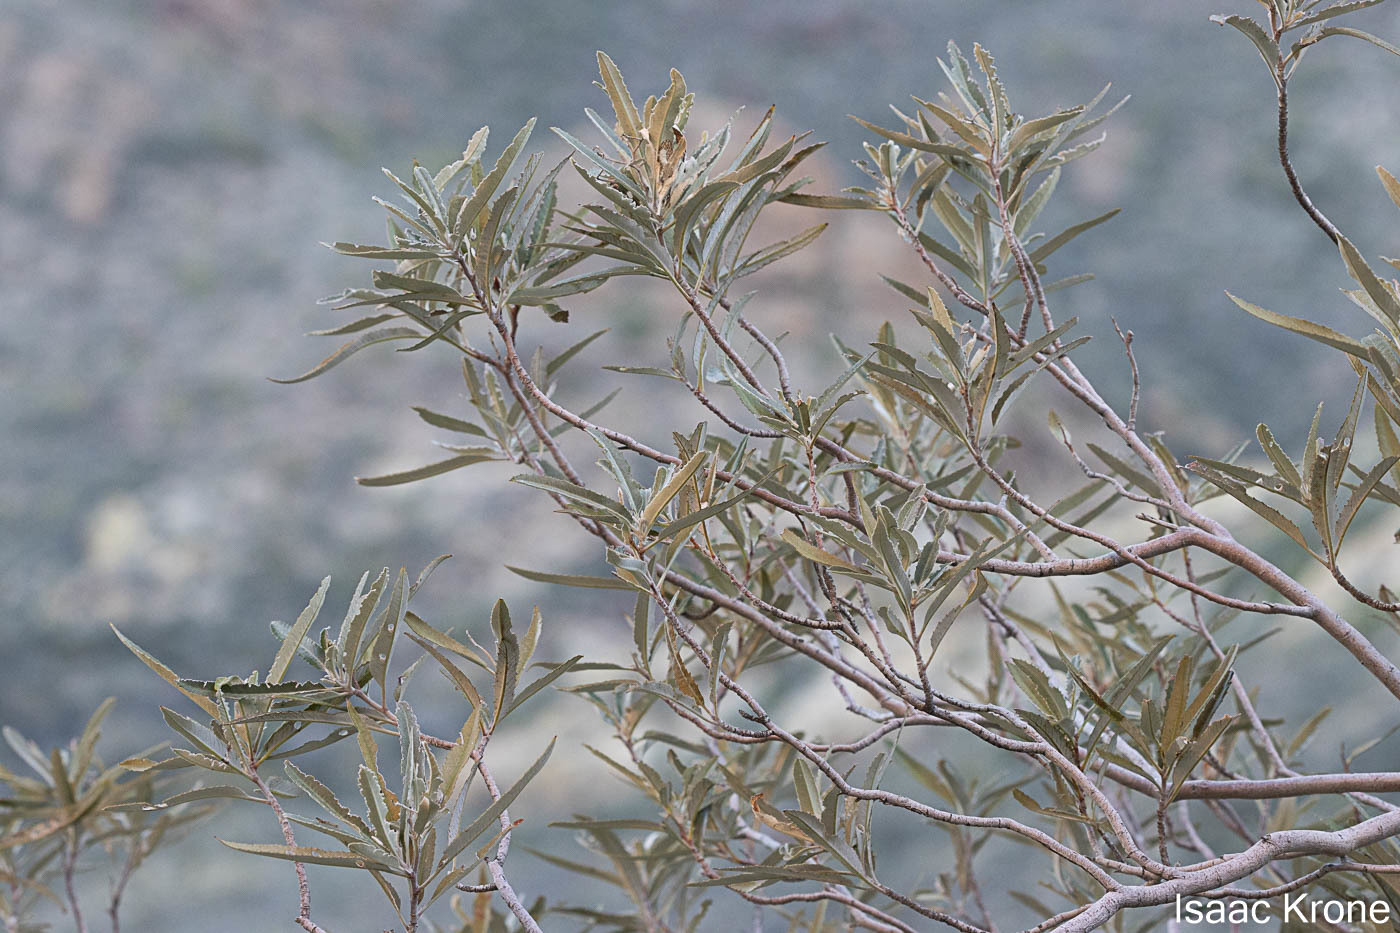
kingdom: Plantae
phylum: Tracheophyta
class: Magnoliopsida
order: Rosales
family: Rosaceae
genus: Vauquelinia
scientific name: Vauquelinia californica
